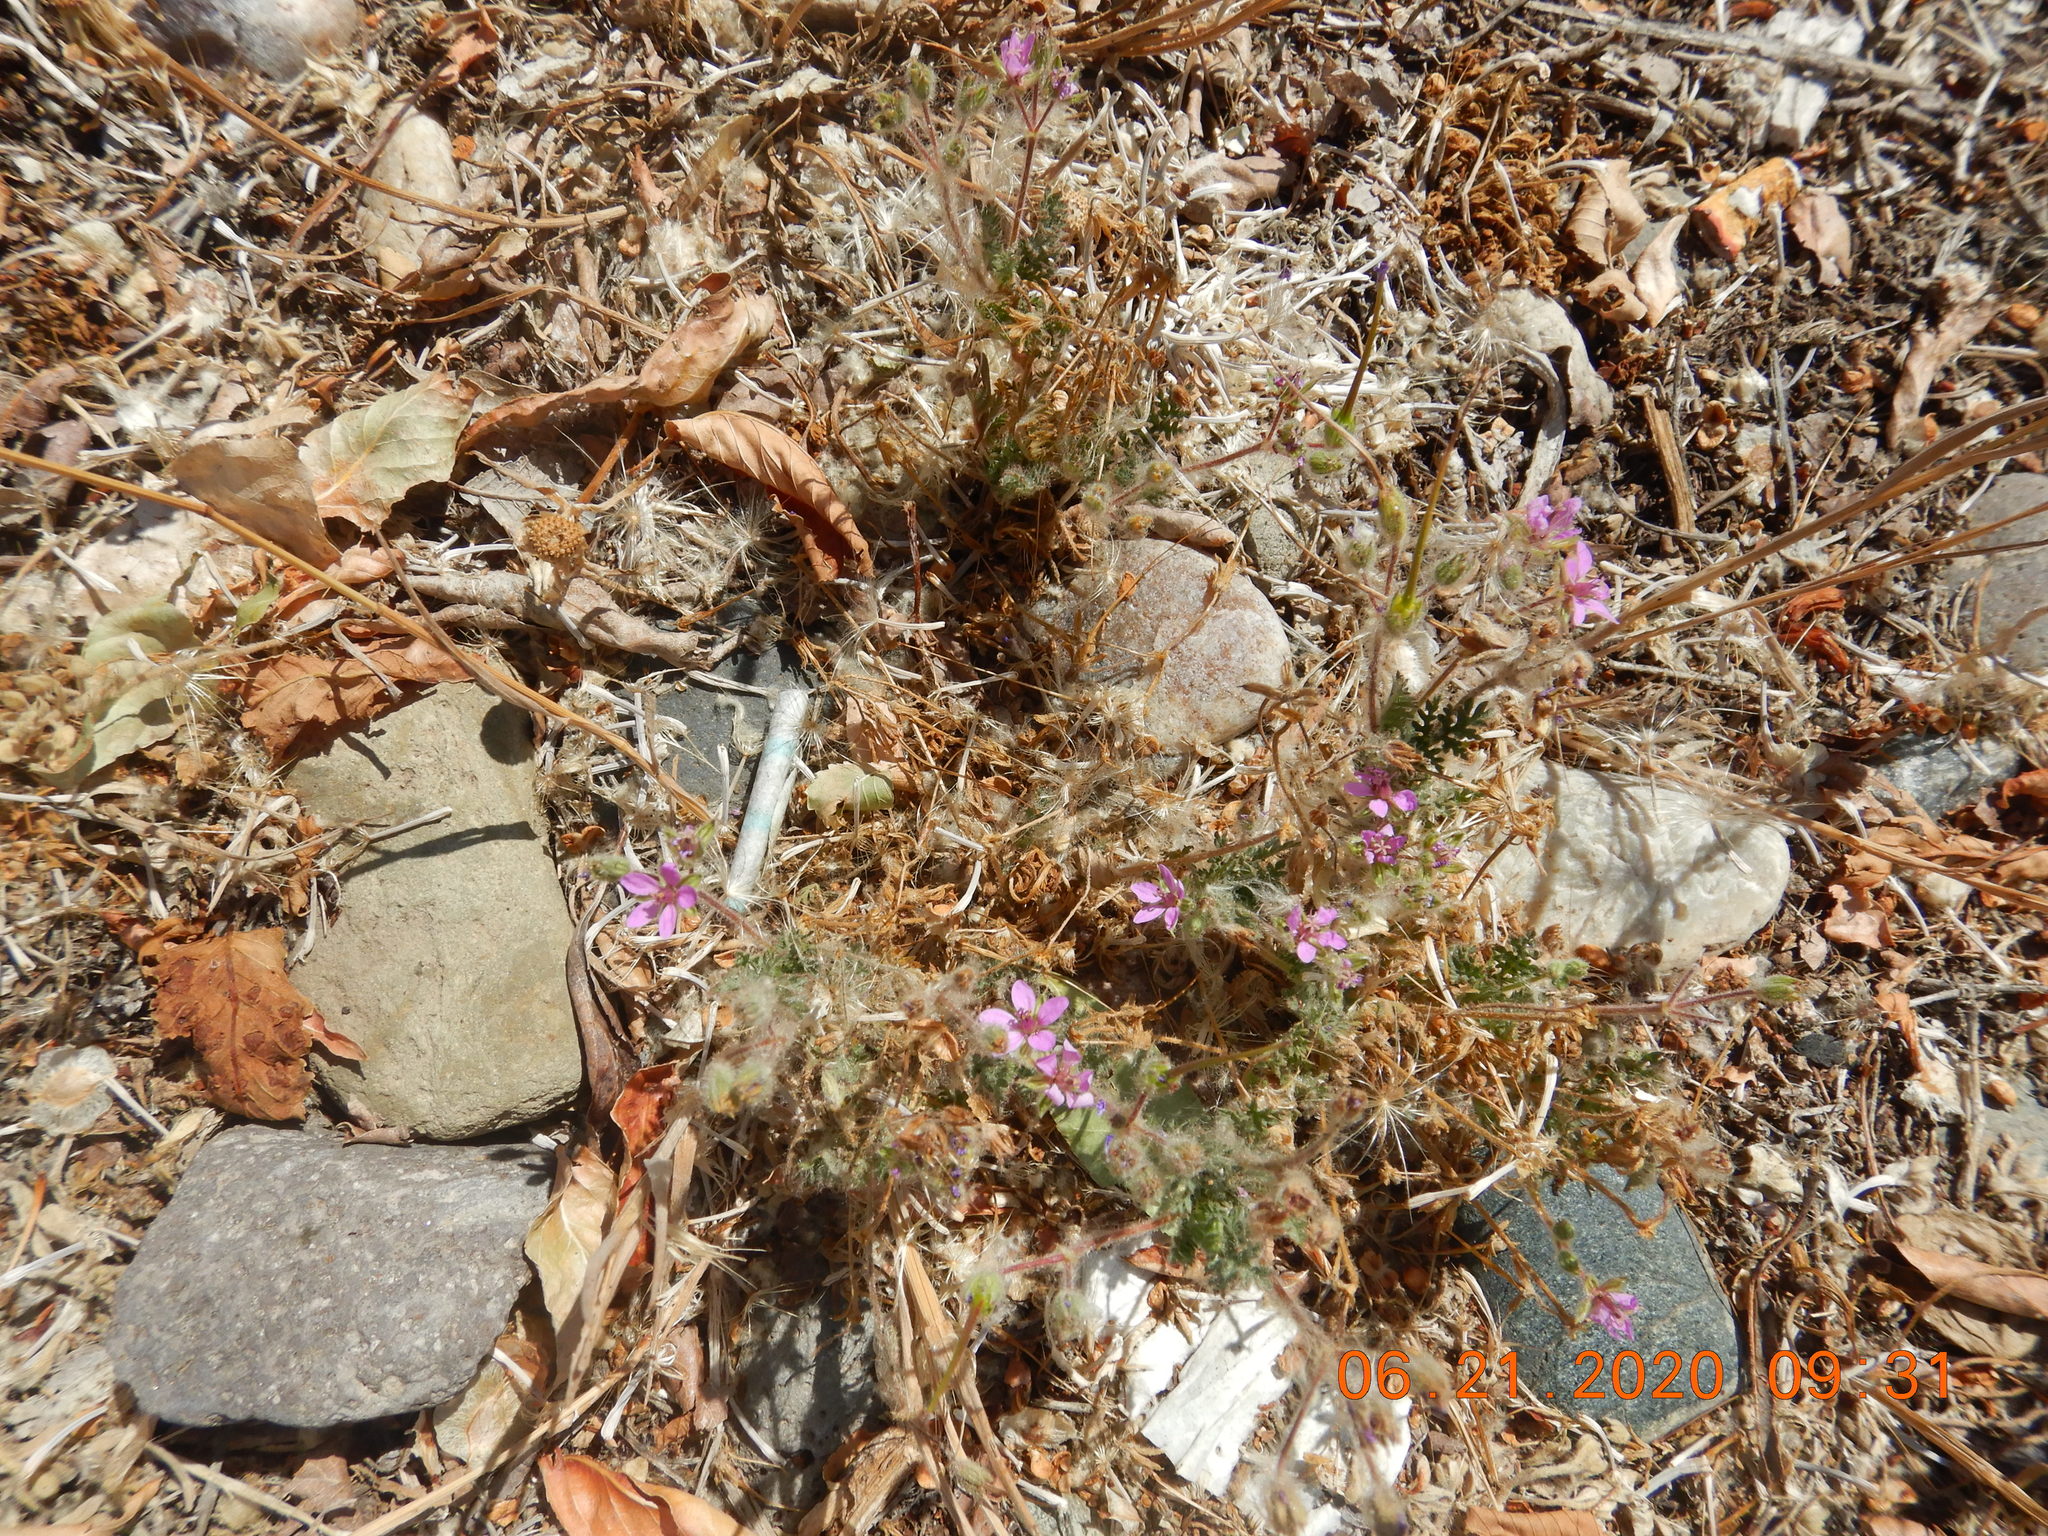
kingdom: Plantae
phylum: Tracheophyta
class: Magnoliopsida
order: Geraniales
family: Geraniaceae
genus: Erodium
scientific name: Erodium cicutarium
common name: Common stork's-bill
